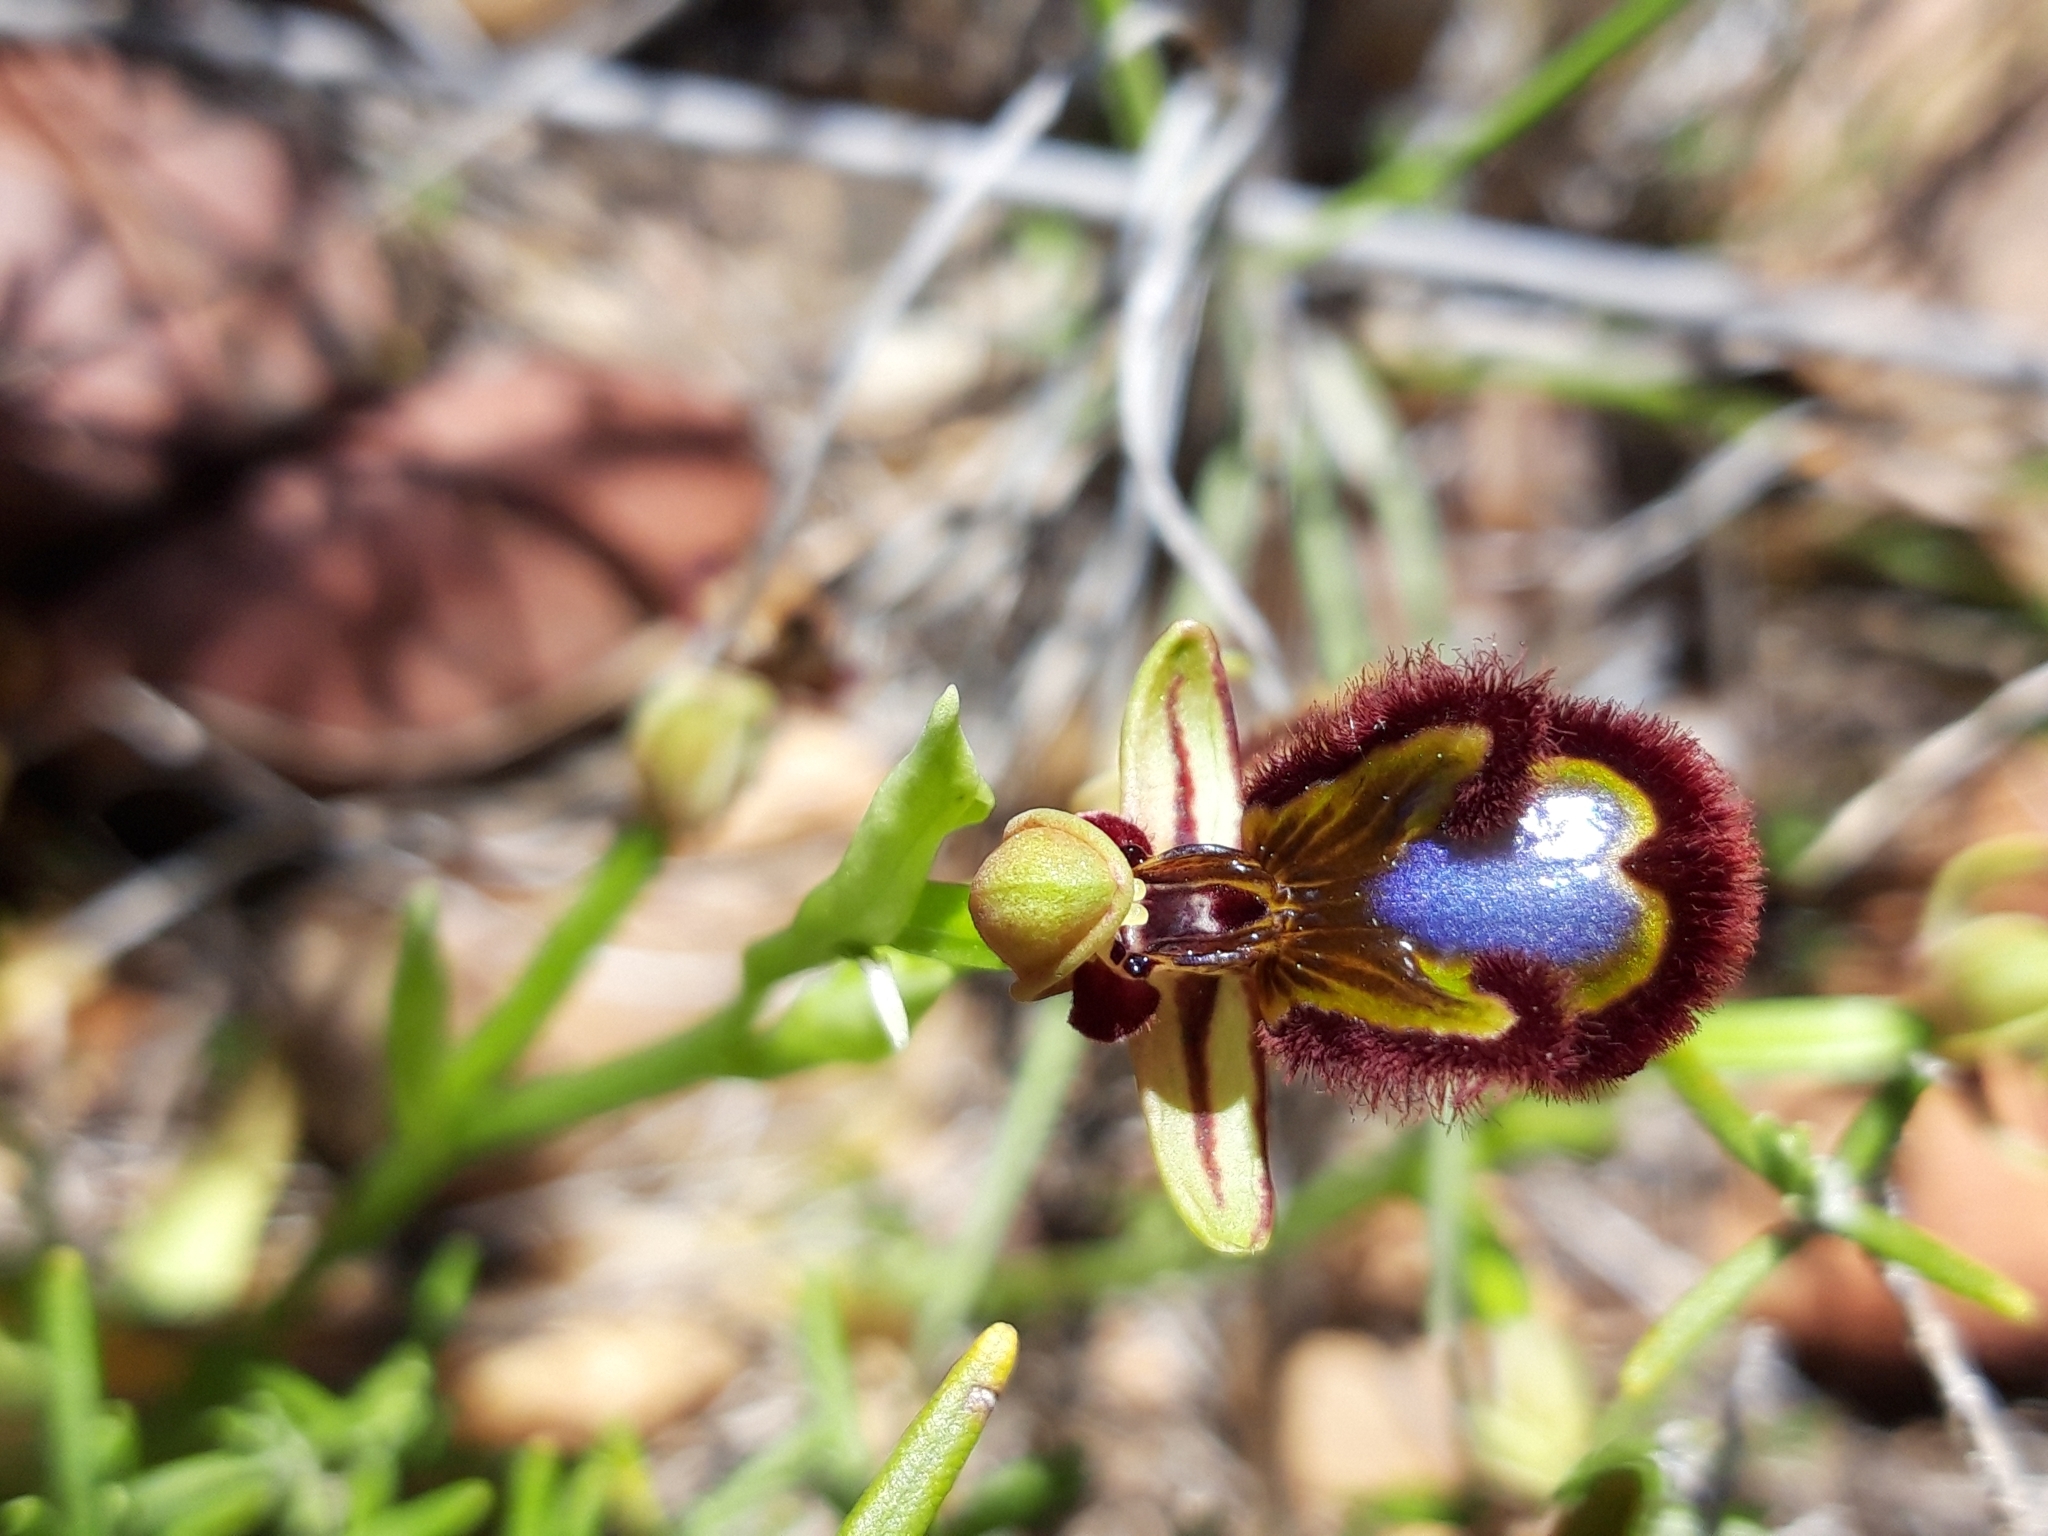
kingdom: Plantae
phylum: Tracheophyta
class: Liliopsida
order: Asparagales
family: Orchidaceae
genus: Ophrys
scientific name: Ophrys speculum
